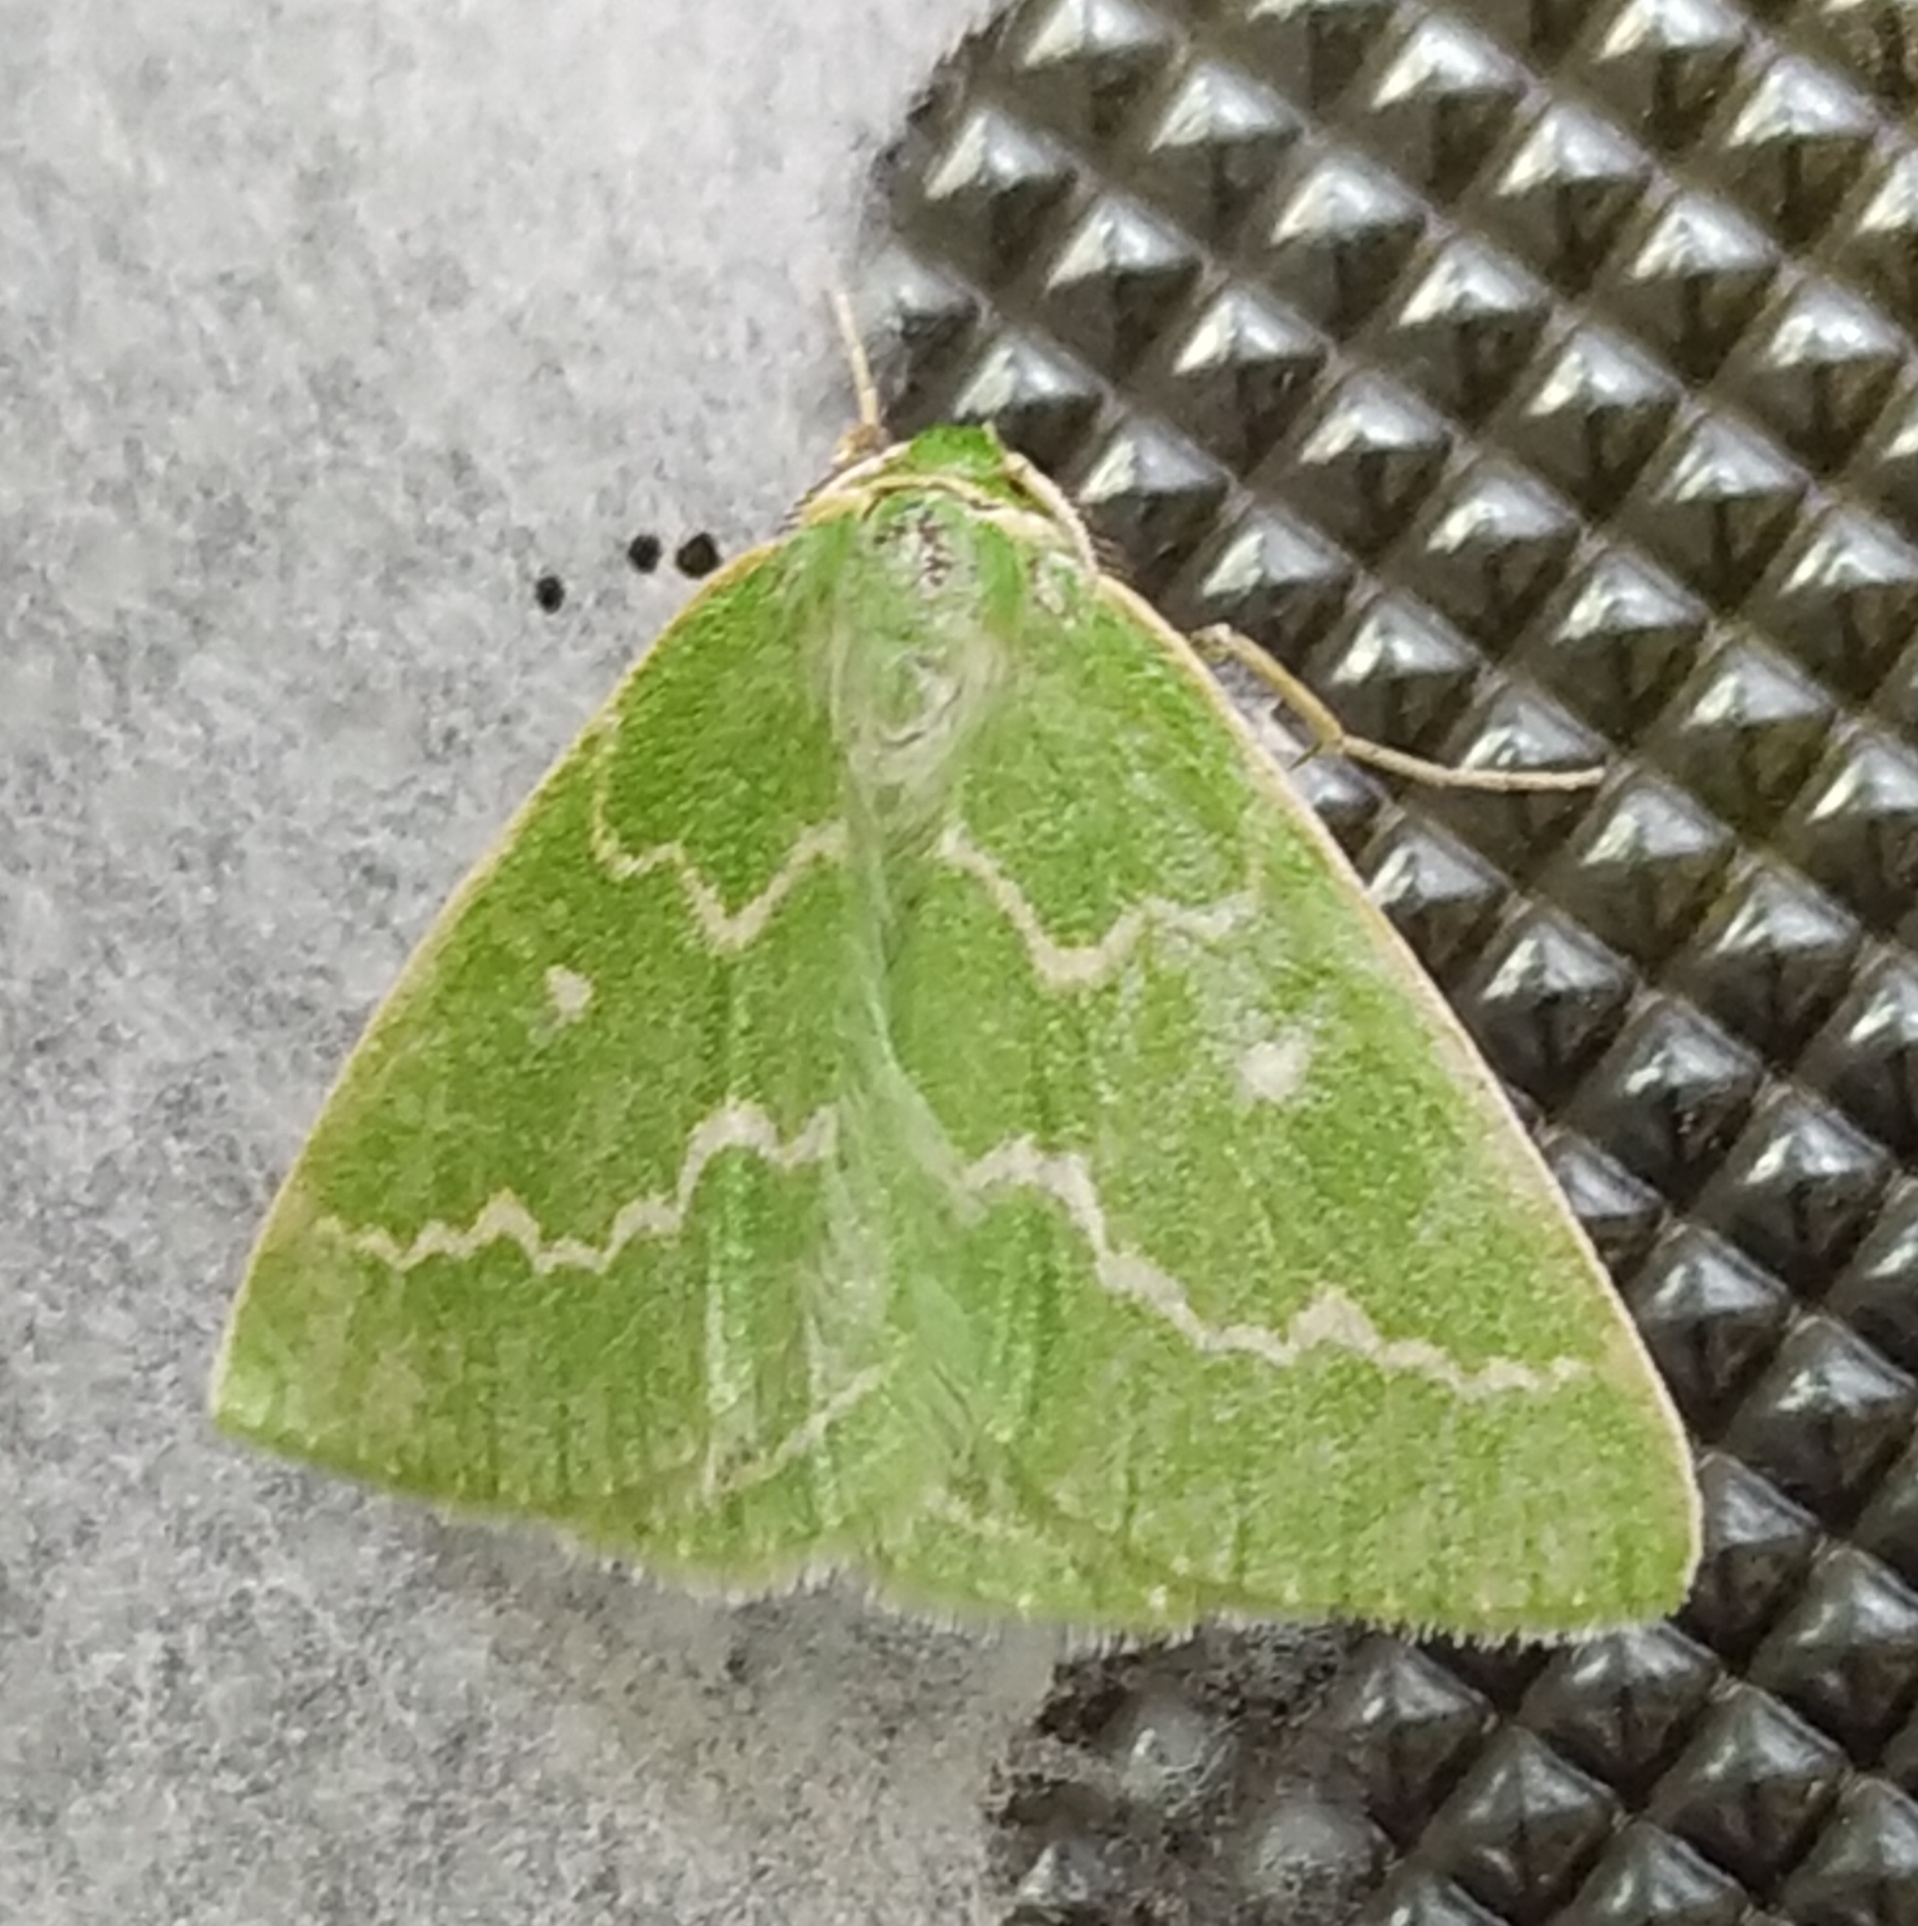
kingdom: Animalia
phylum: Arthropoda
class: Insecta
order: Lepidoptera
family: Geometridae
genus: Thetidia
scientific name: Thetidia smaragdaria
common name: Essex emerald
